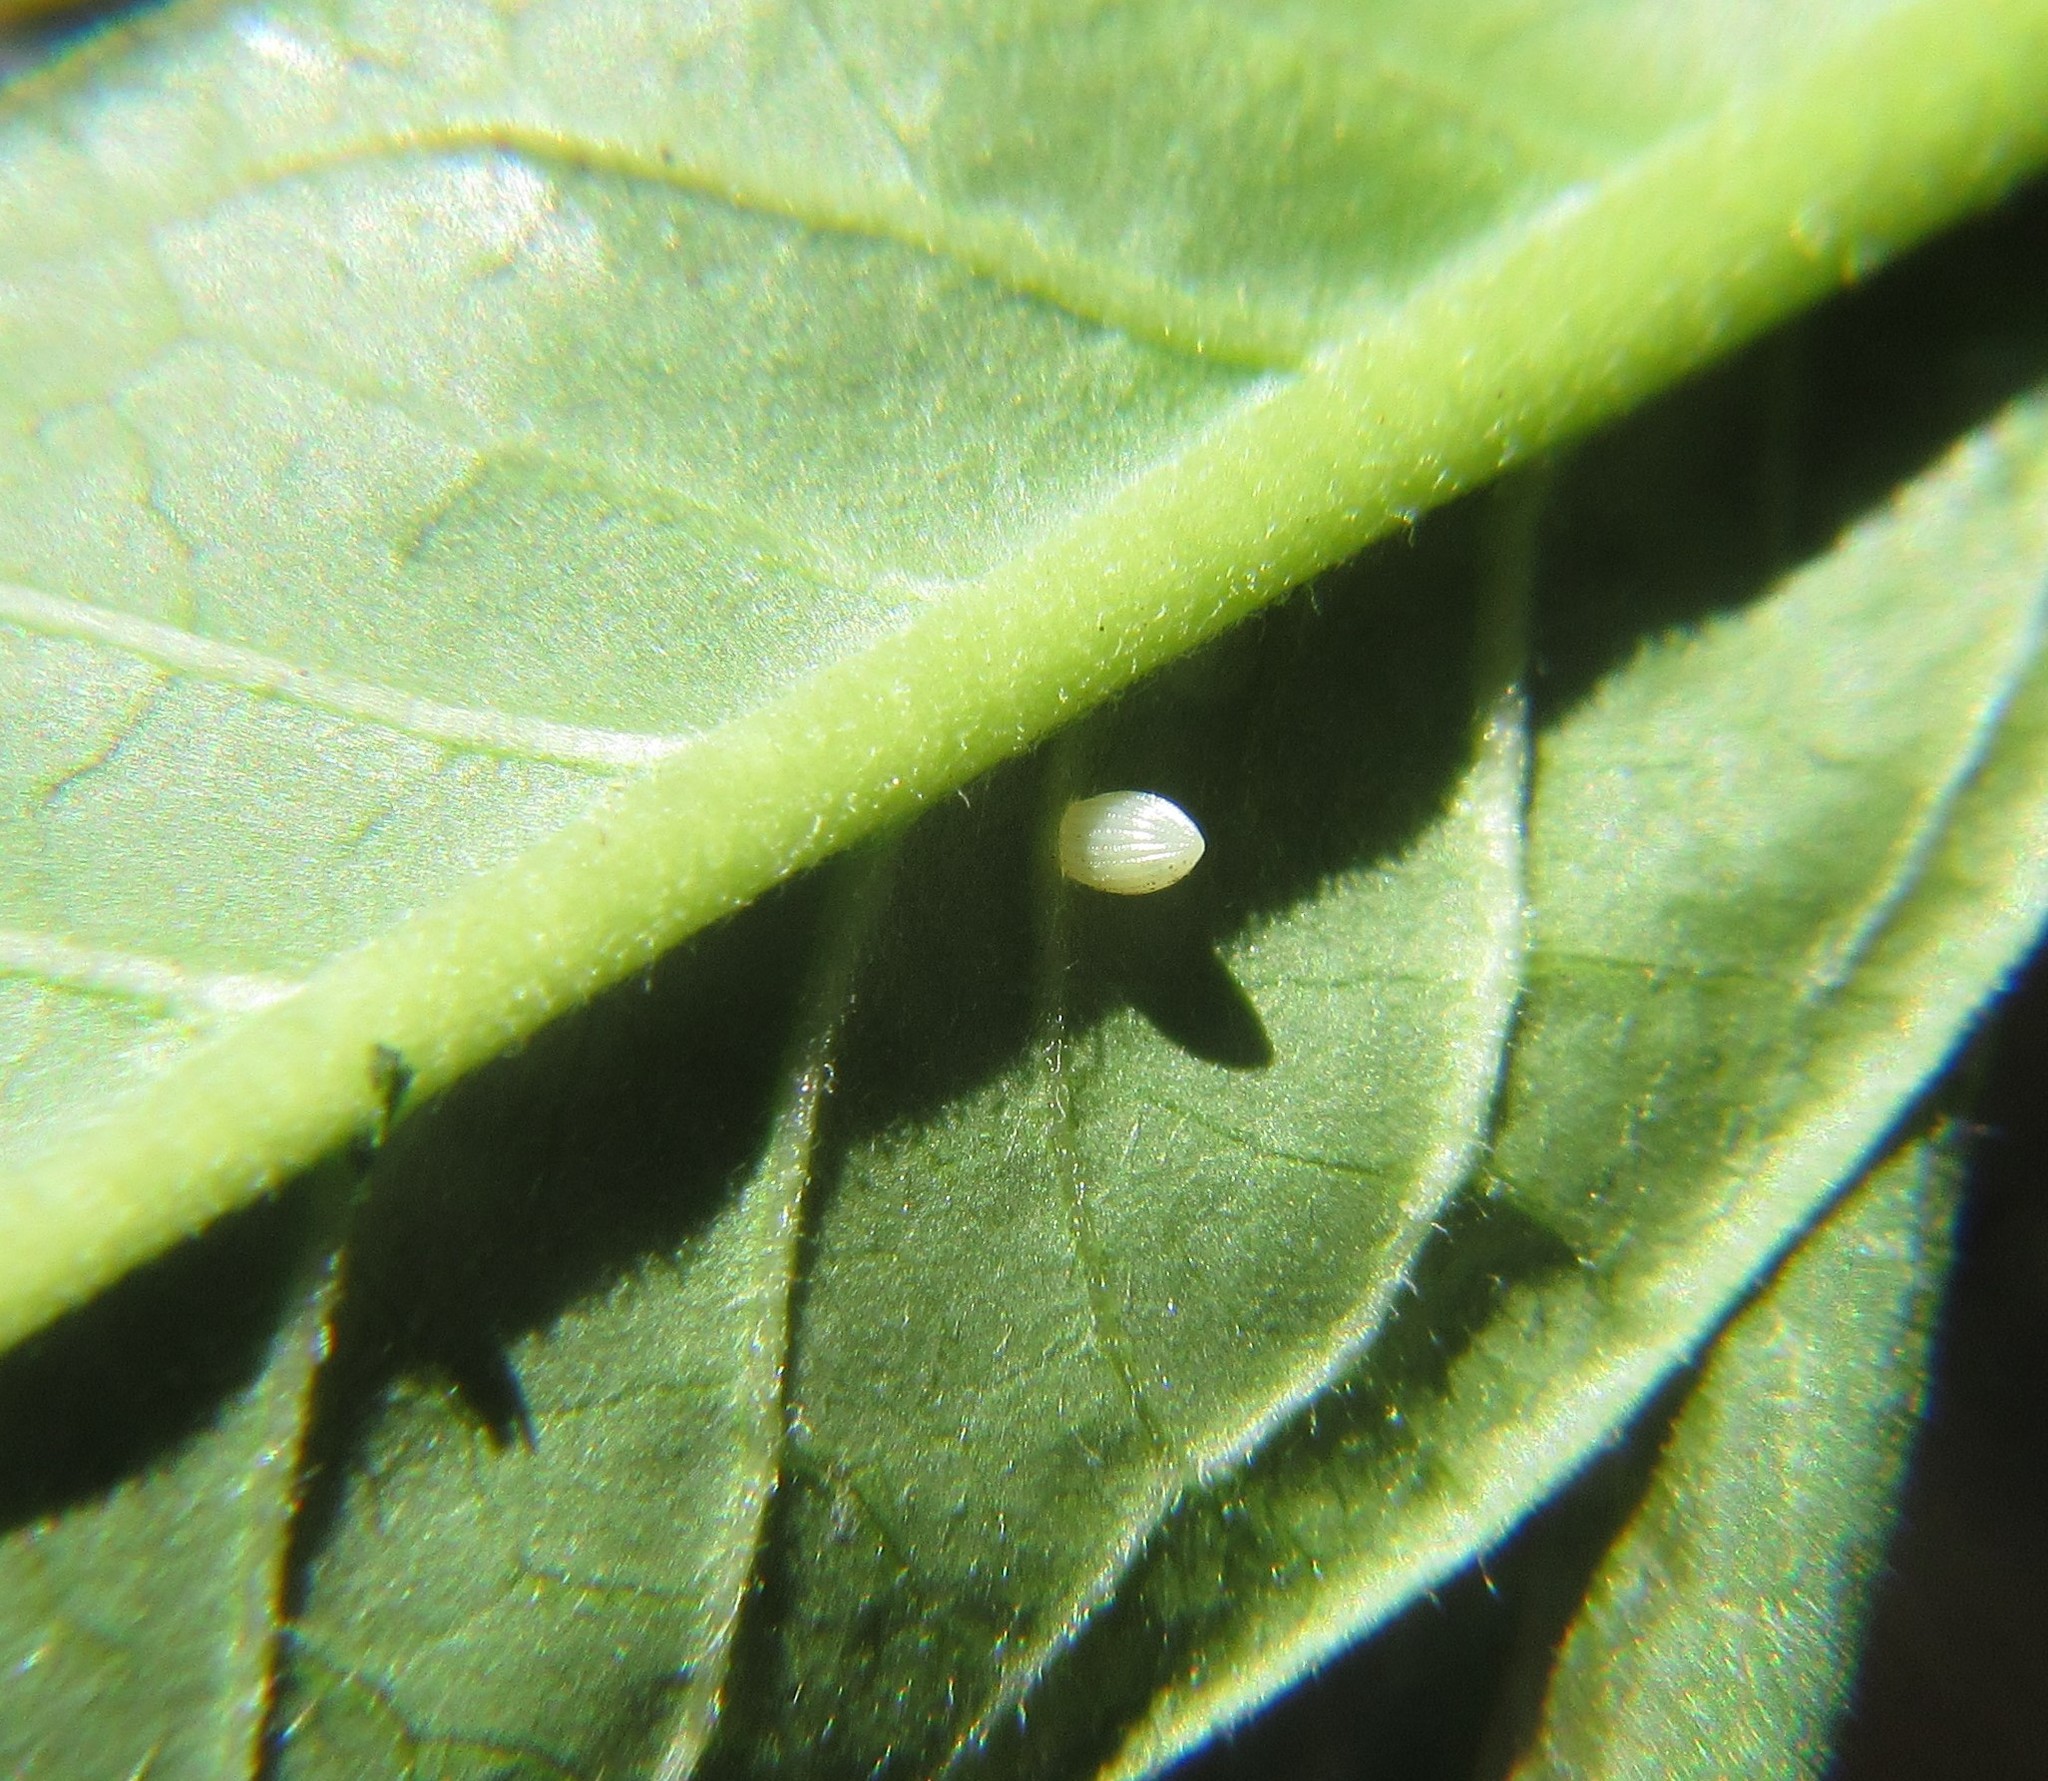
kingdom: Animalia
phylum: Arthropoda
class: Insecta
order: Lepidoptera
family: Nymphalidae
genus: Danaus
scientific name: Danaus plexippus
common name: Monarch
